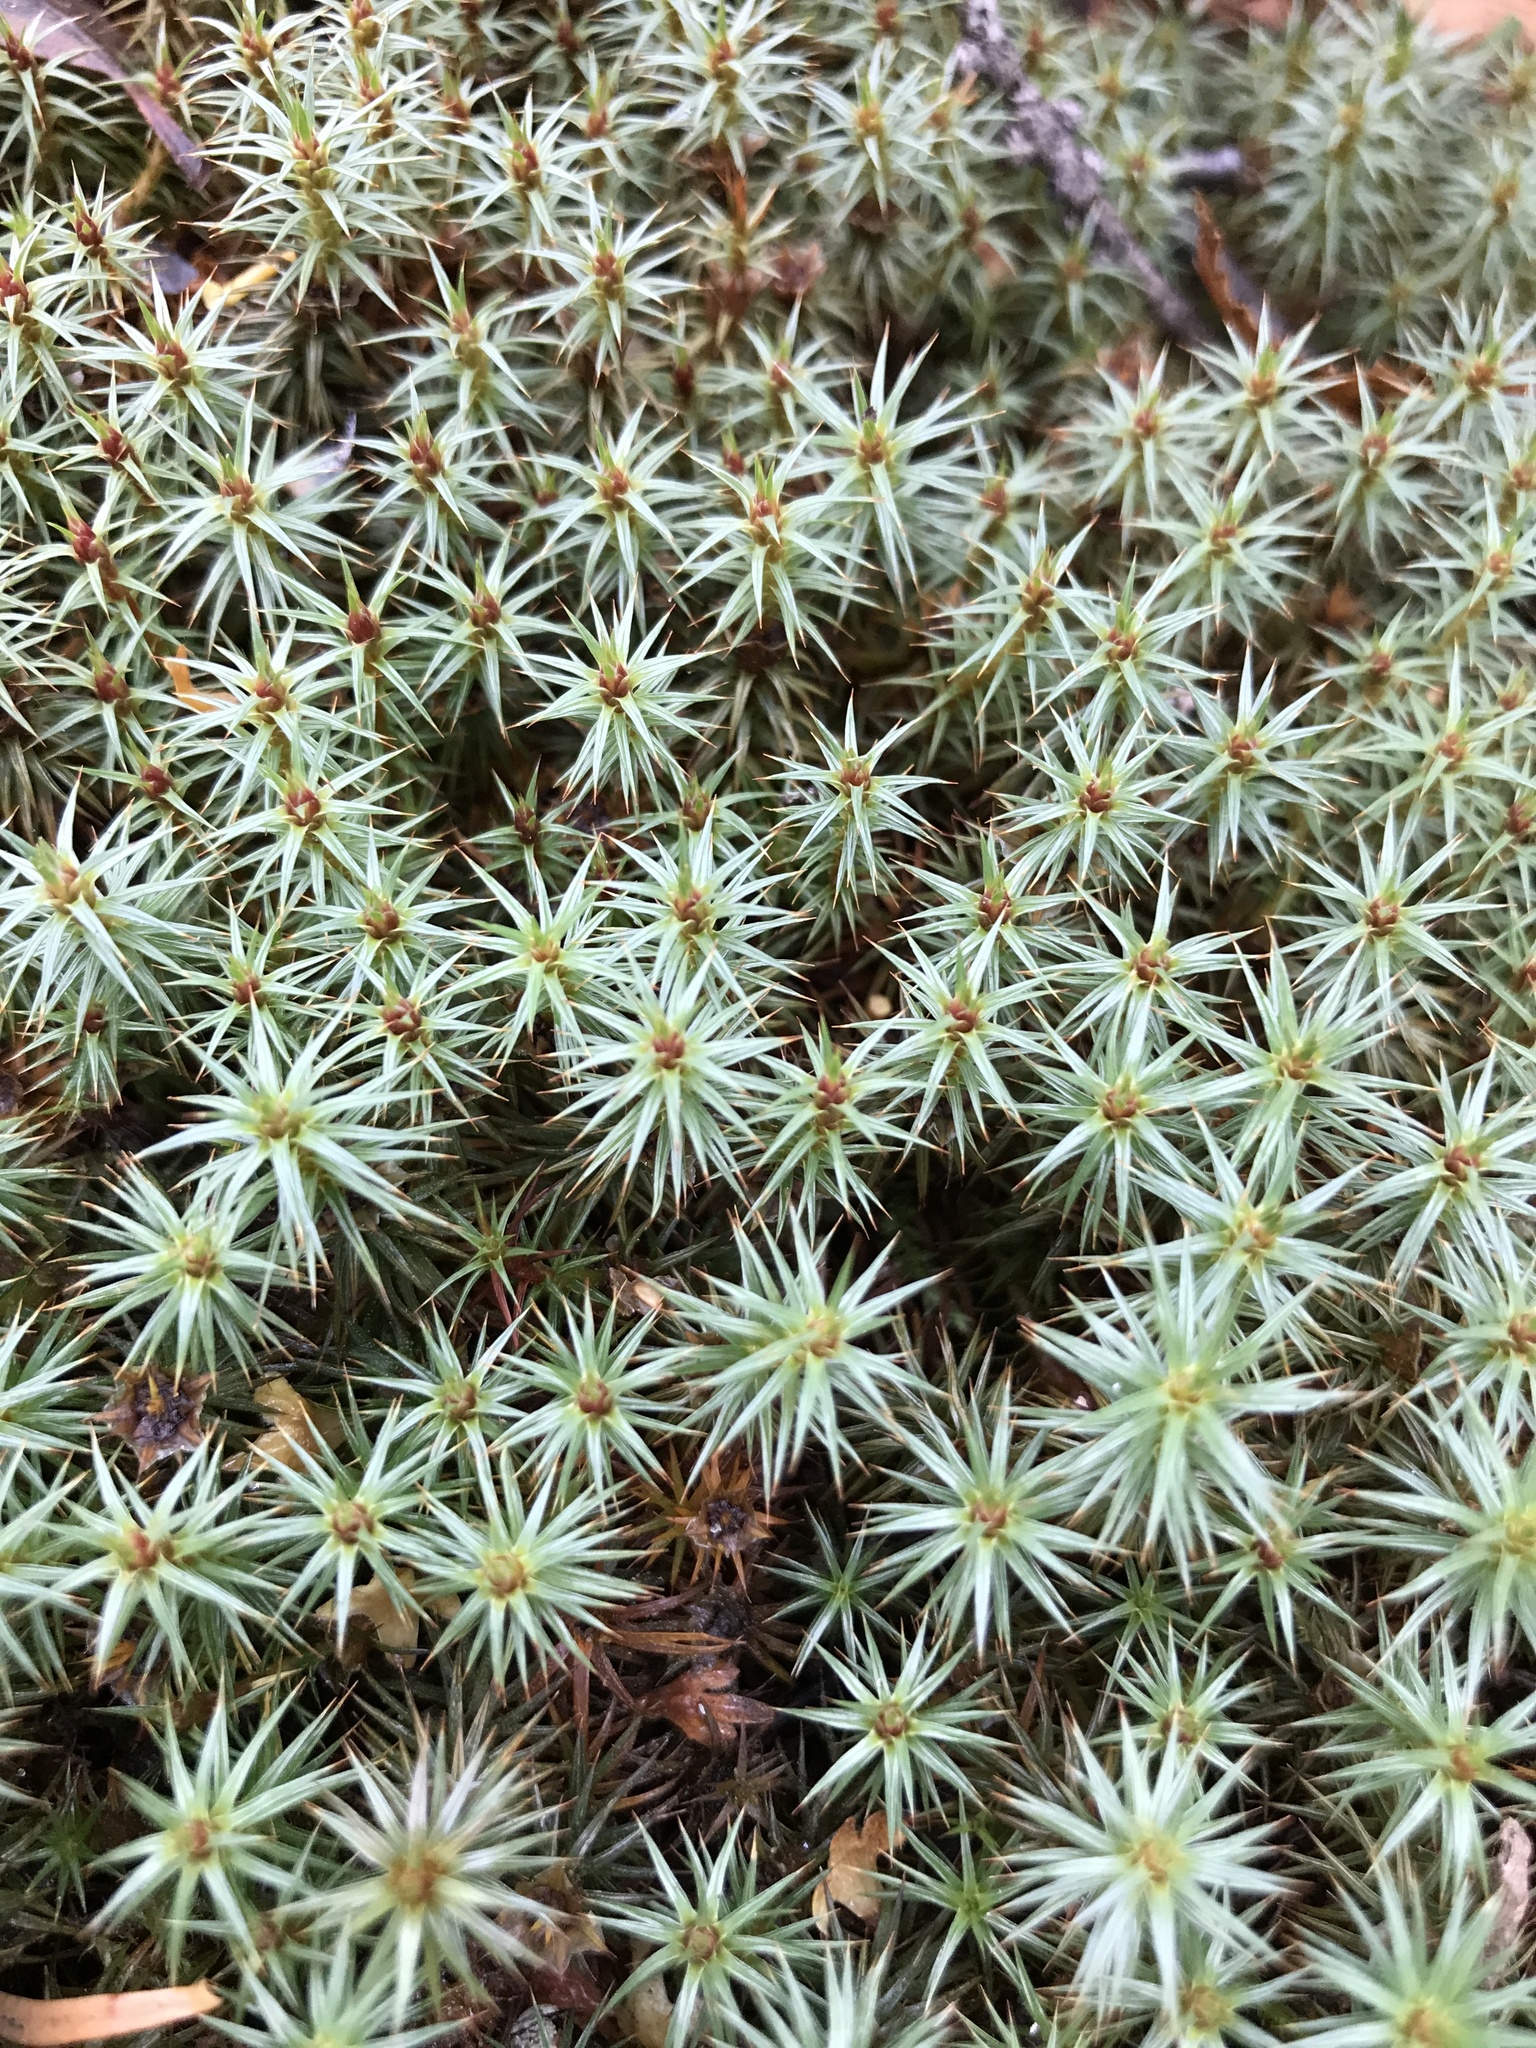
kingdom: Plantae
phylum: Bryophyta
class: Polytrichopsida
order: Polytrichales
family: Polytrichaceae
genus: Polytrichum
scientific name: Polytrichum juniperinum
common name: Juniper haircap moss
